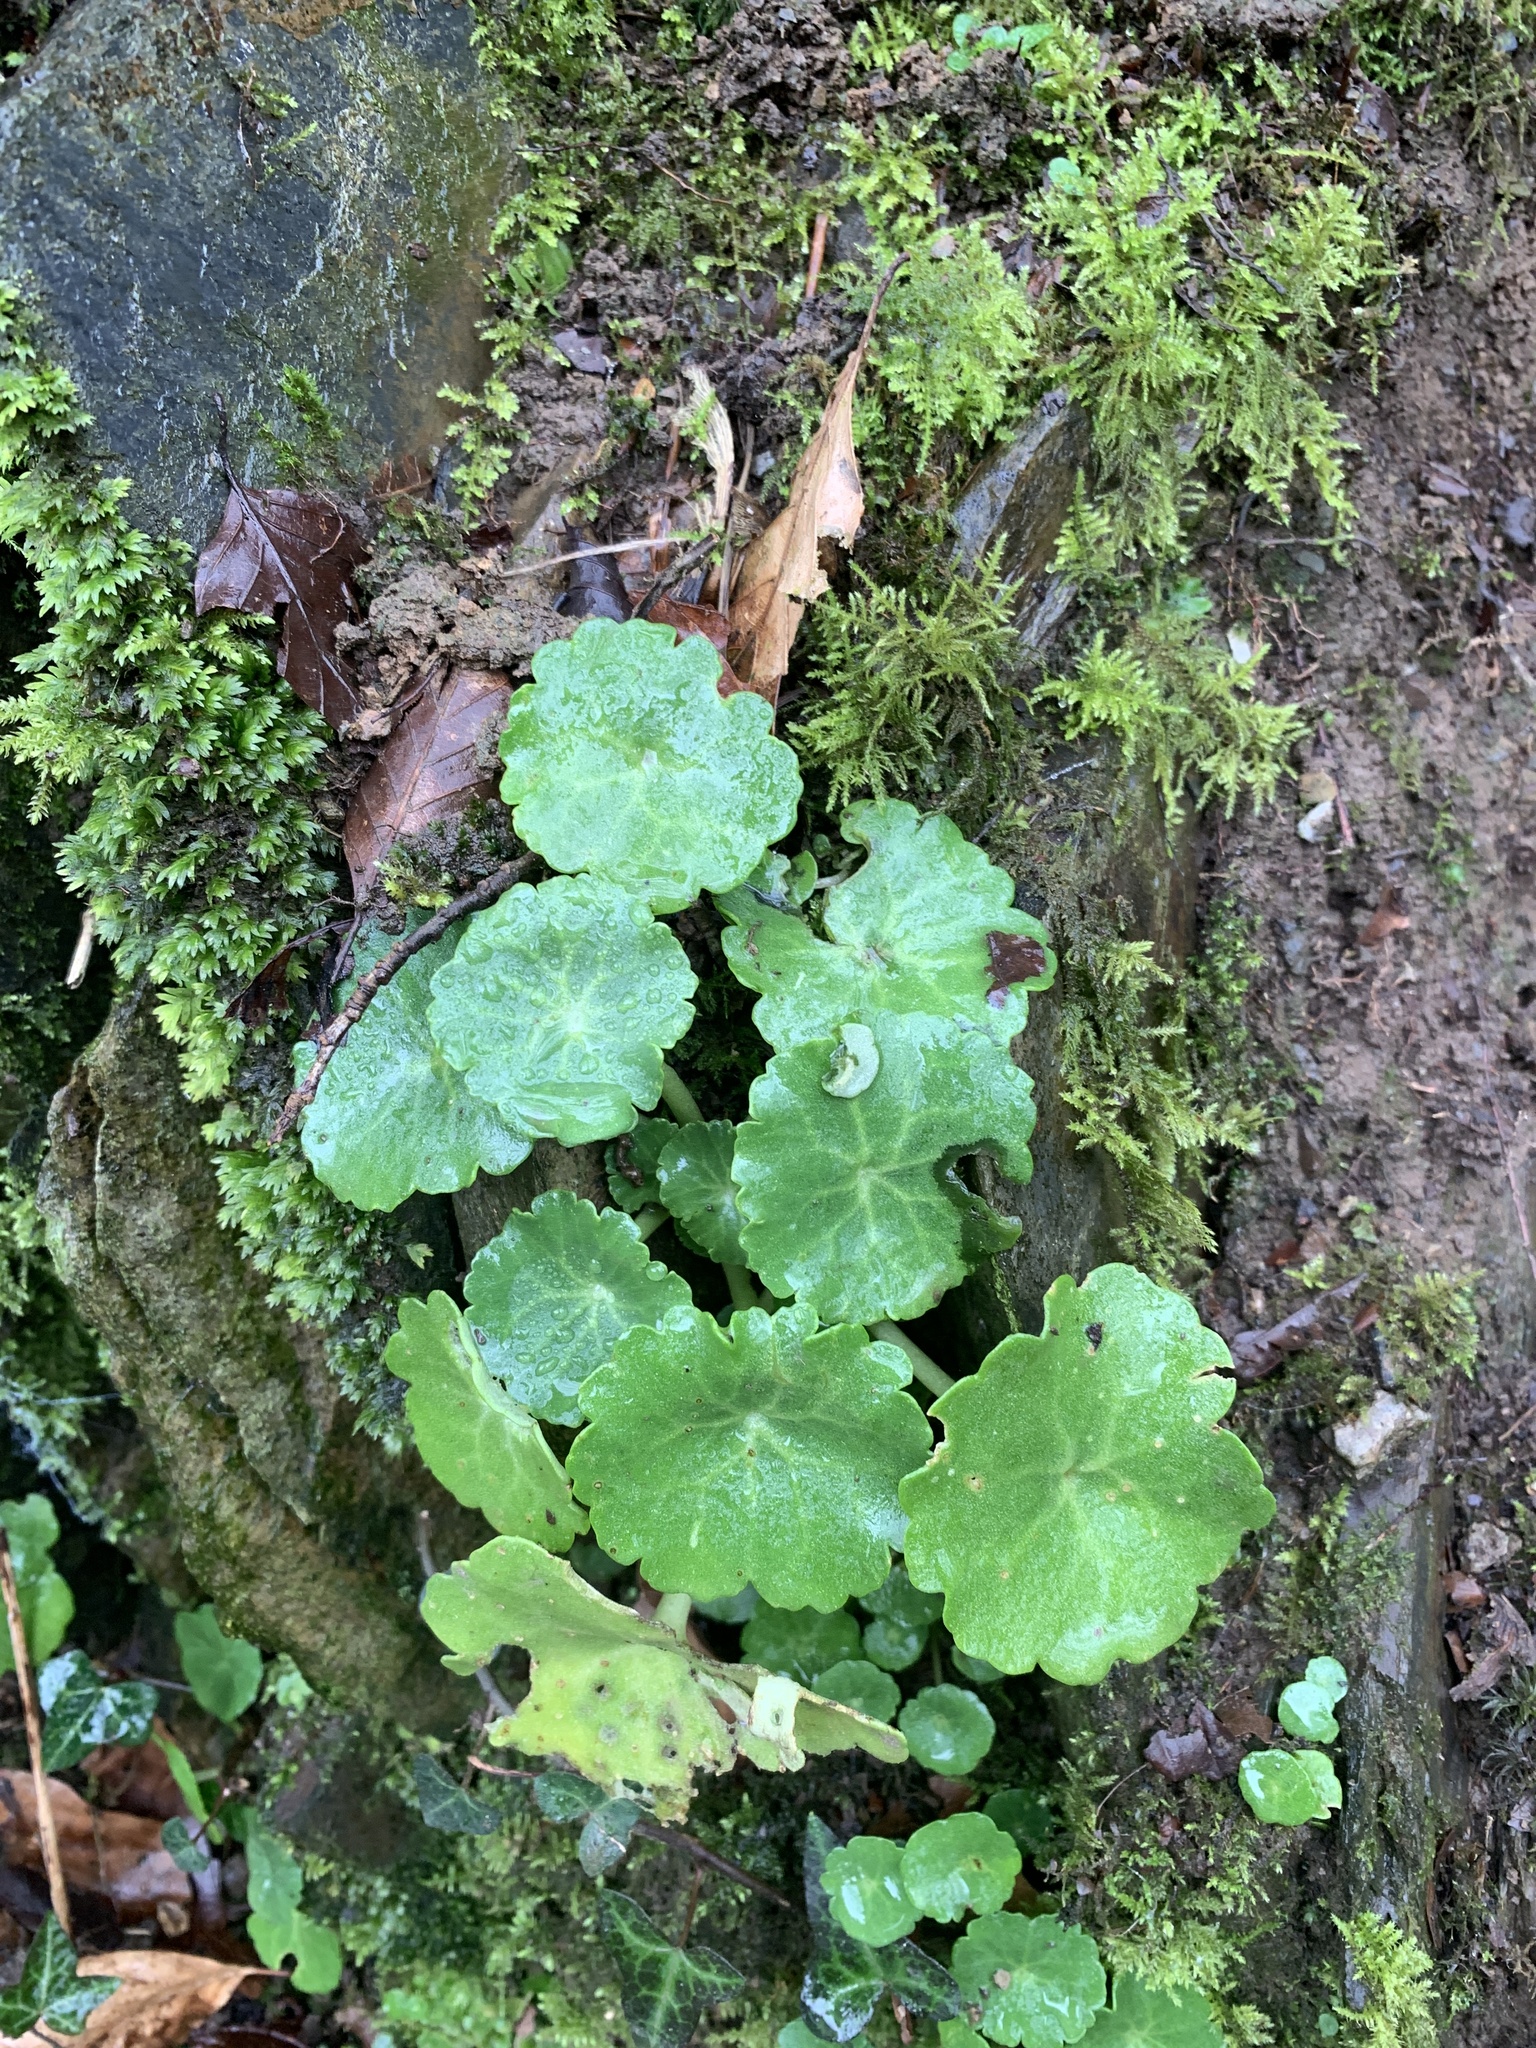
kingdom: Plantae
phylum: Tracheophyta
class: Magnoliopsida
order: Saxifragales
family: Crassulaceae
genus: Umbilicus
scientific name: Umbilicus rupestris
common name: Navelwort
